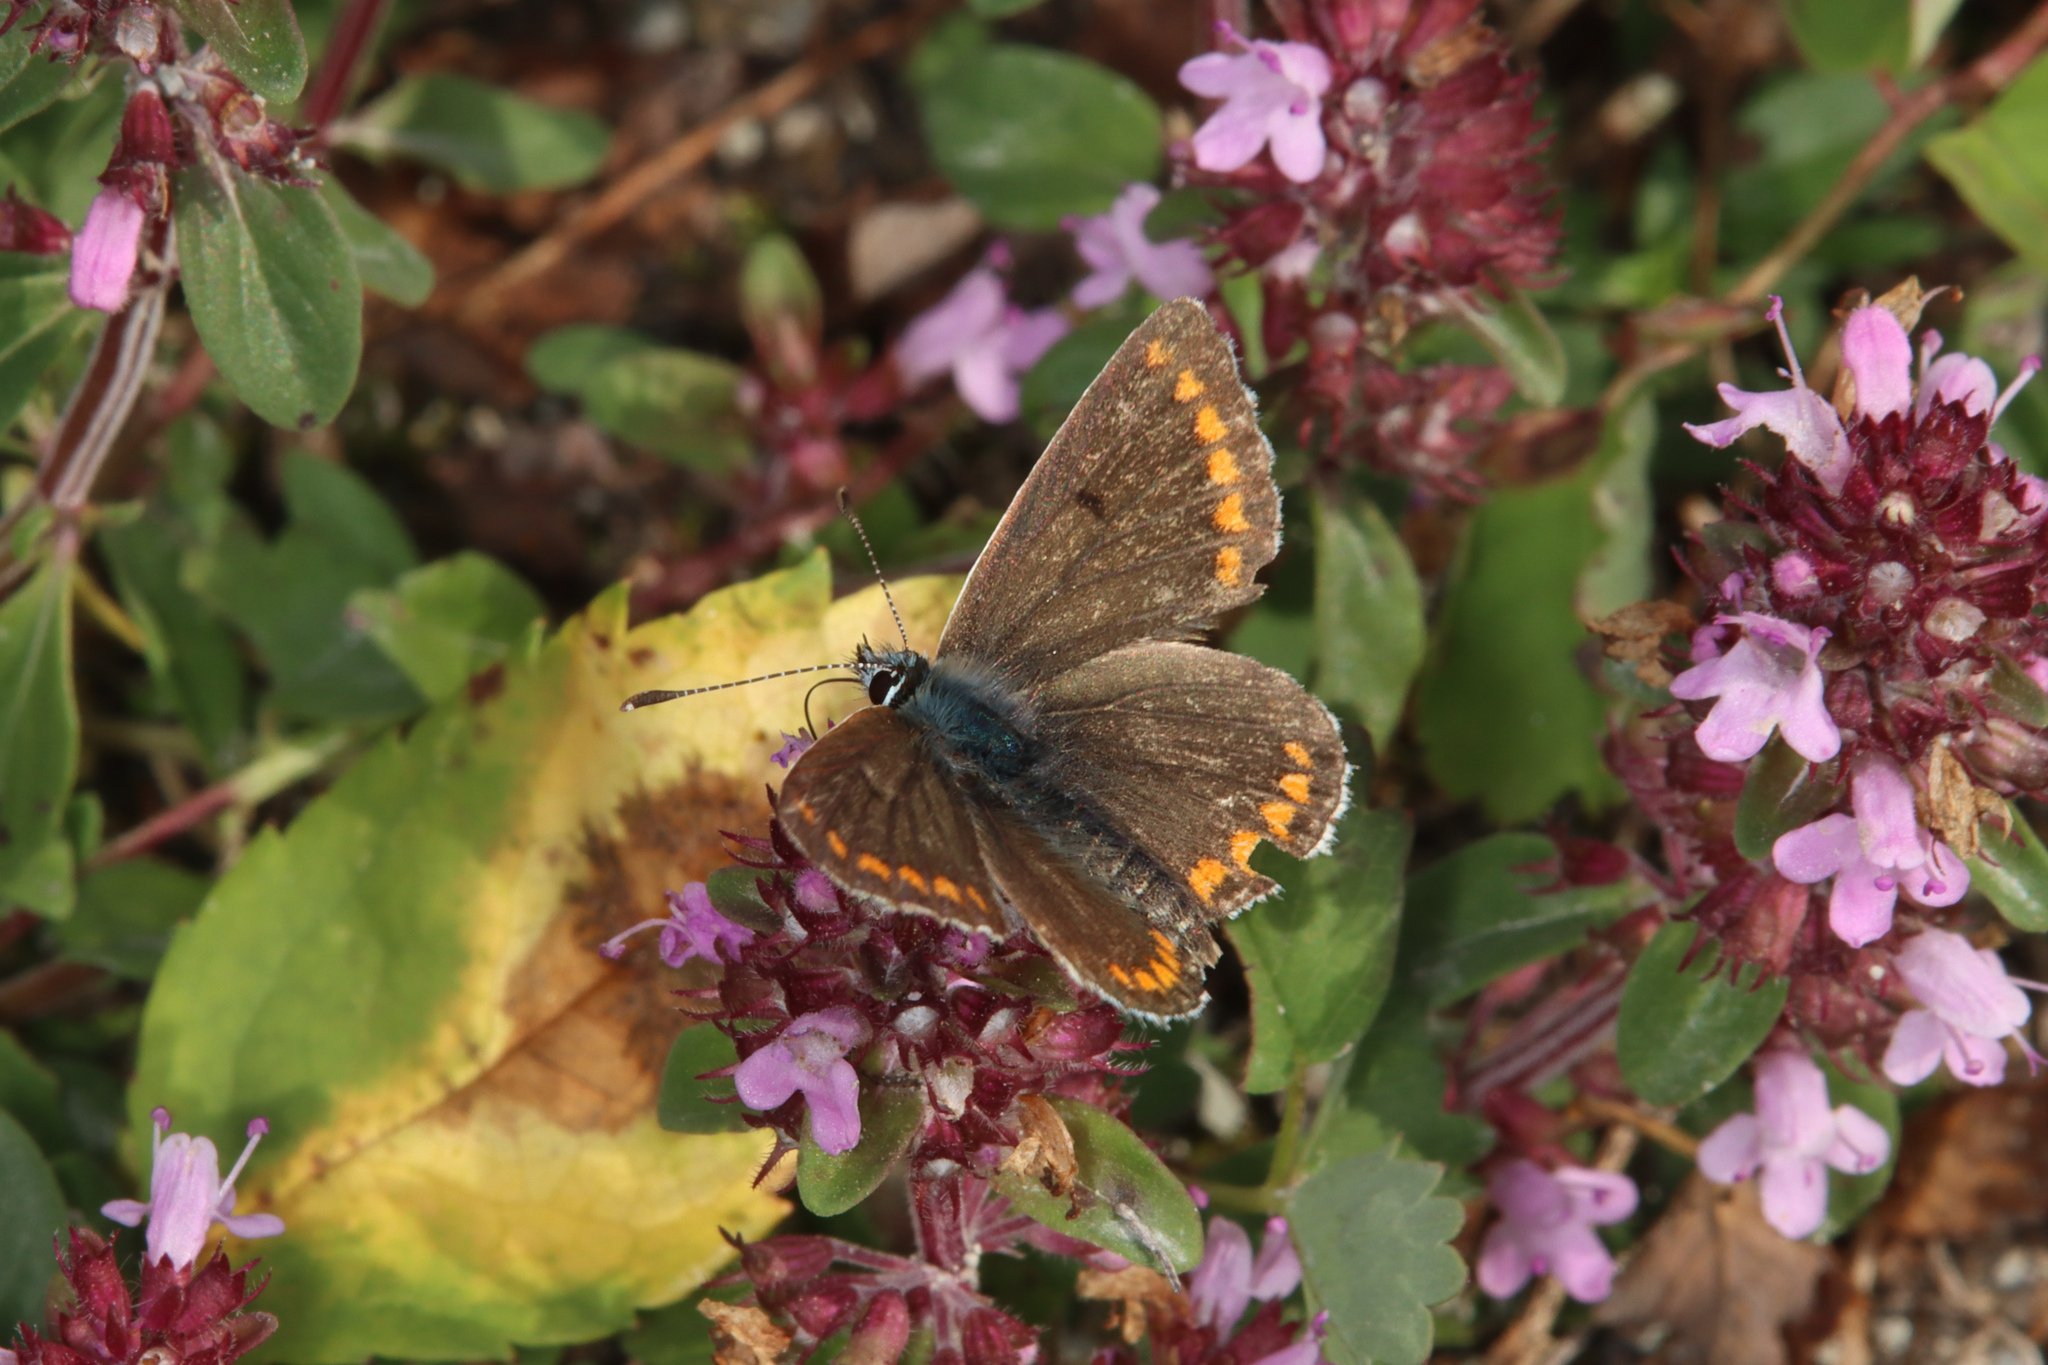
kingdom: Animalia
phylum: Arthropoda
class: Insecta
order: Lepidoptera
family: Lycaenidae
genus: Aricia
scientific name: Aricia agestis
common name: Brown argus
